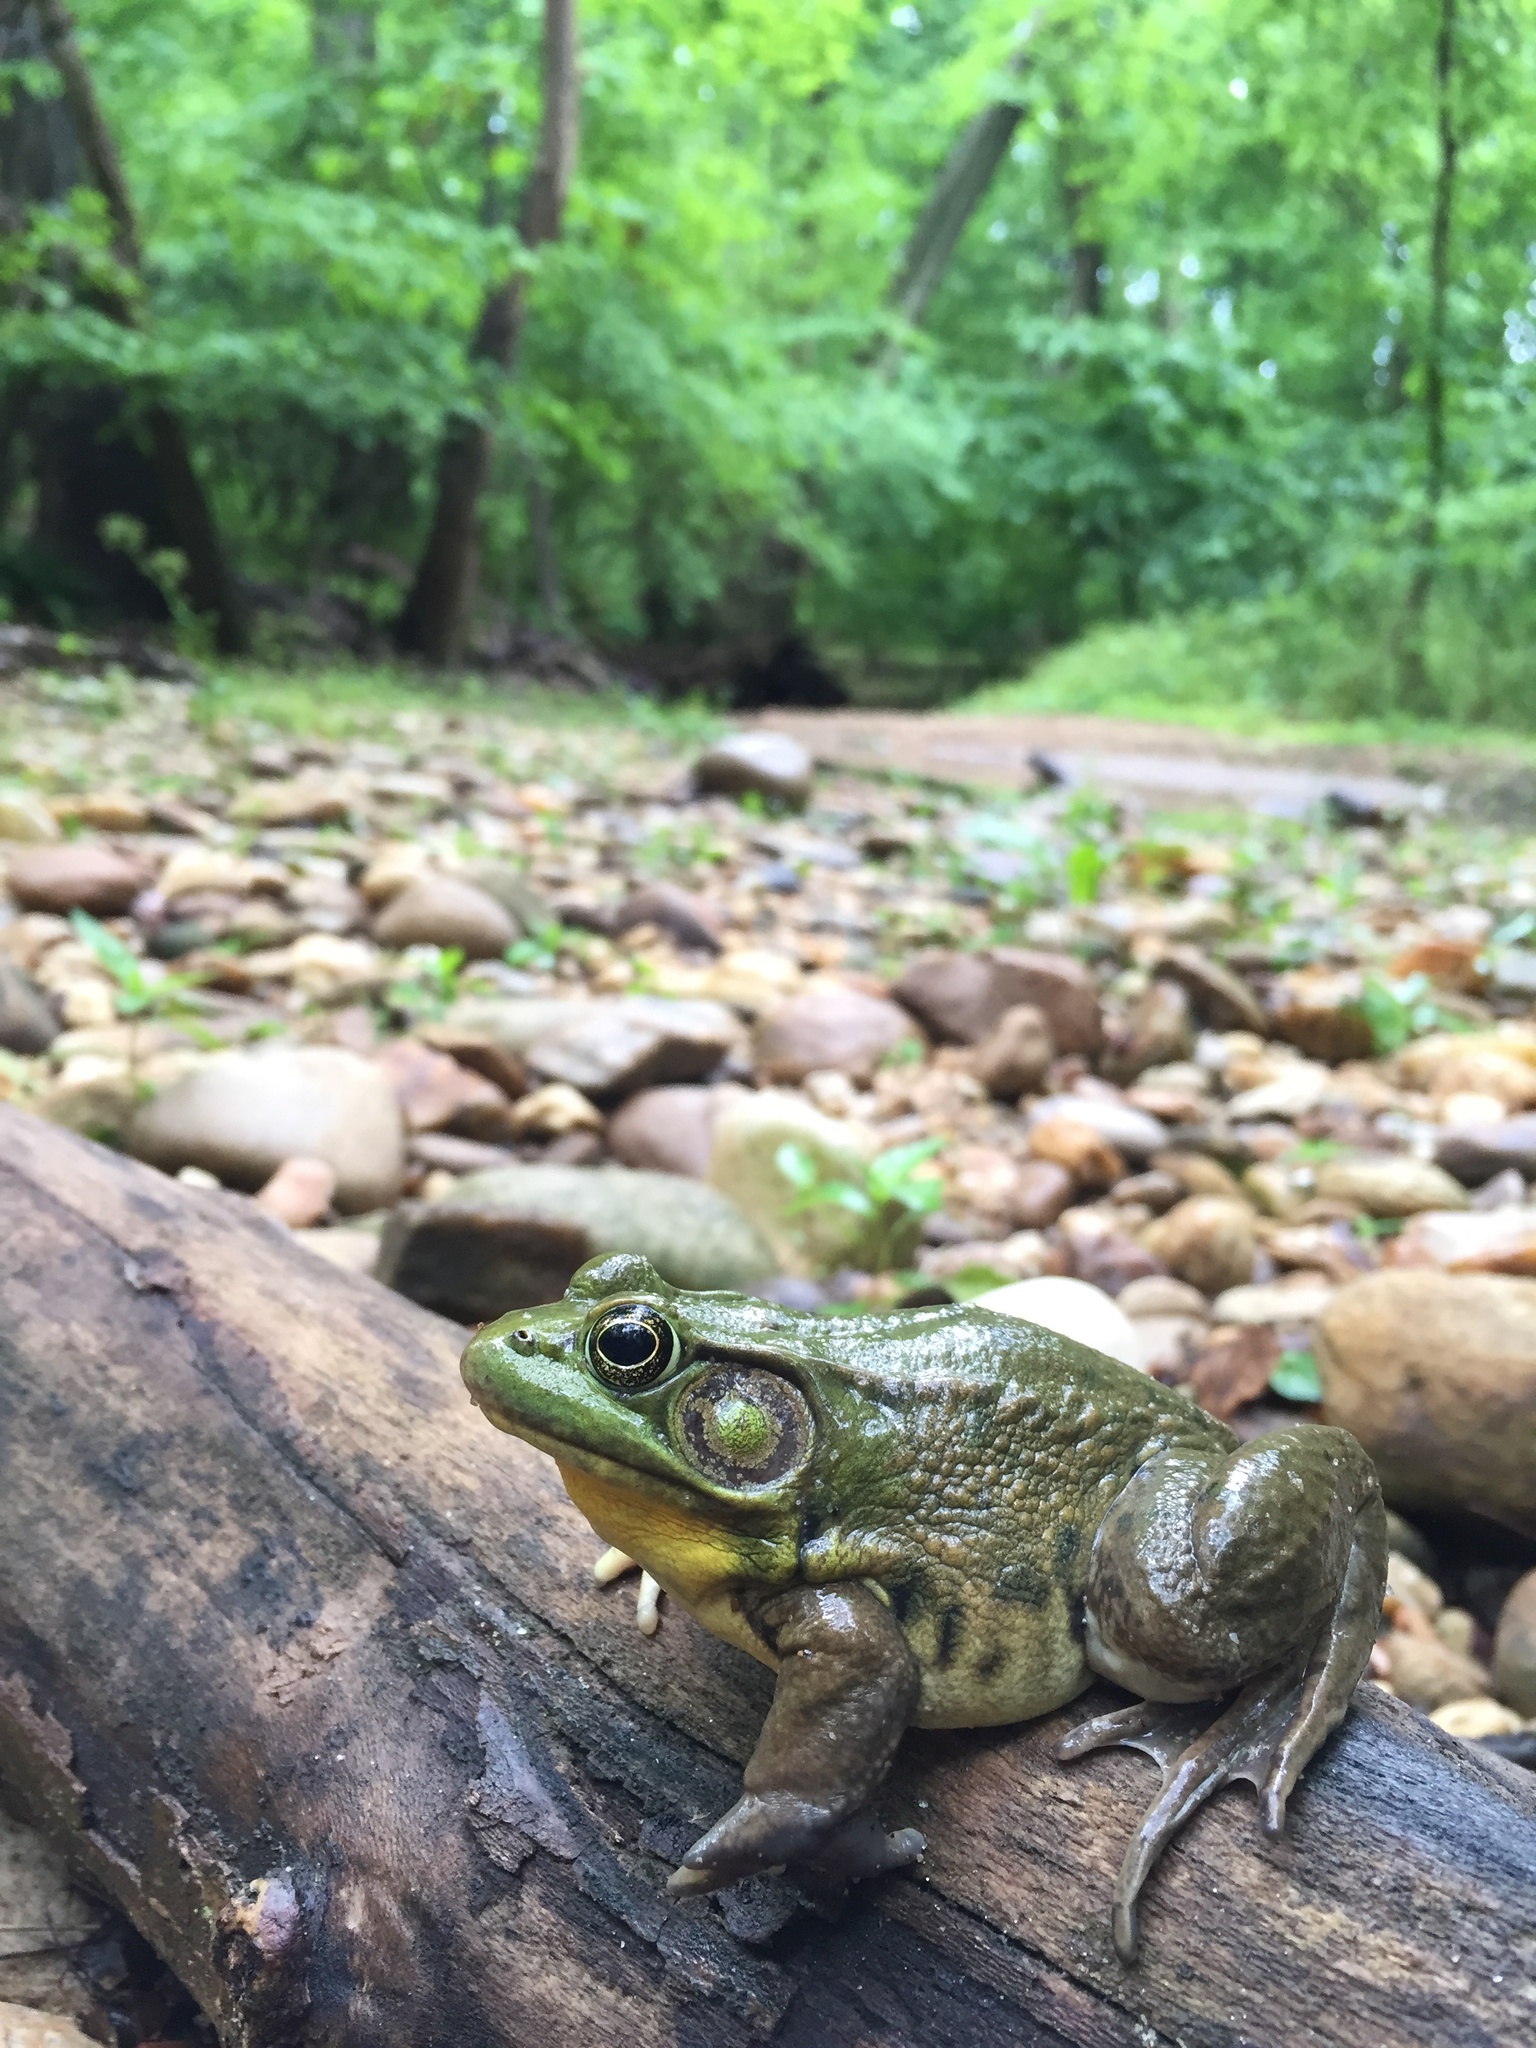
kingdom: Animalia
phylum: Chordata
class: Amphibia
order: Anura
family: Ranidae
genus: Lithobates
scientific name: Lithobates clamitans
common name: Green frog
